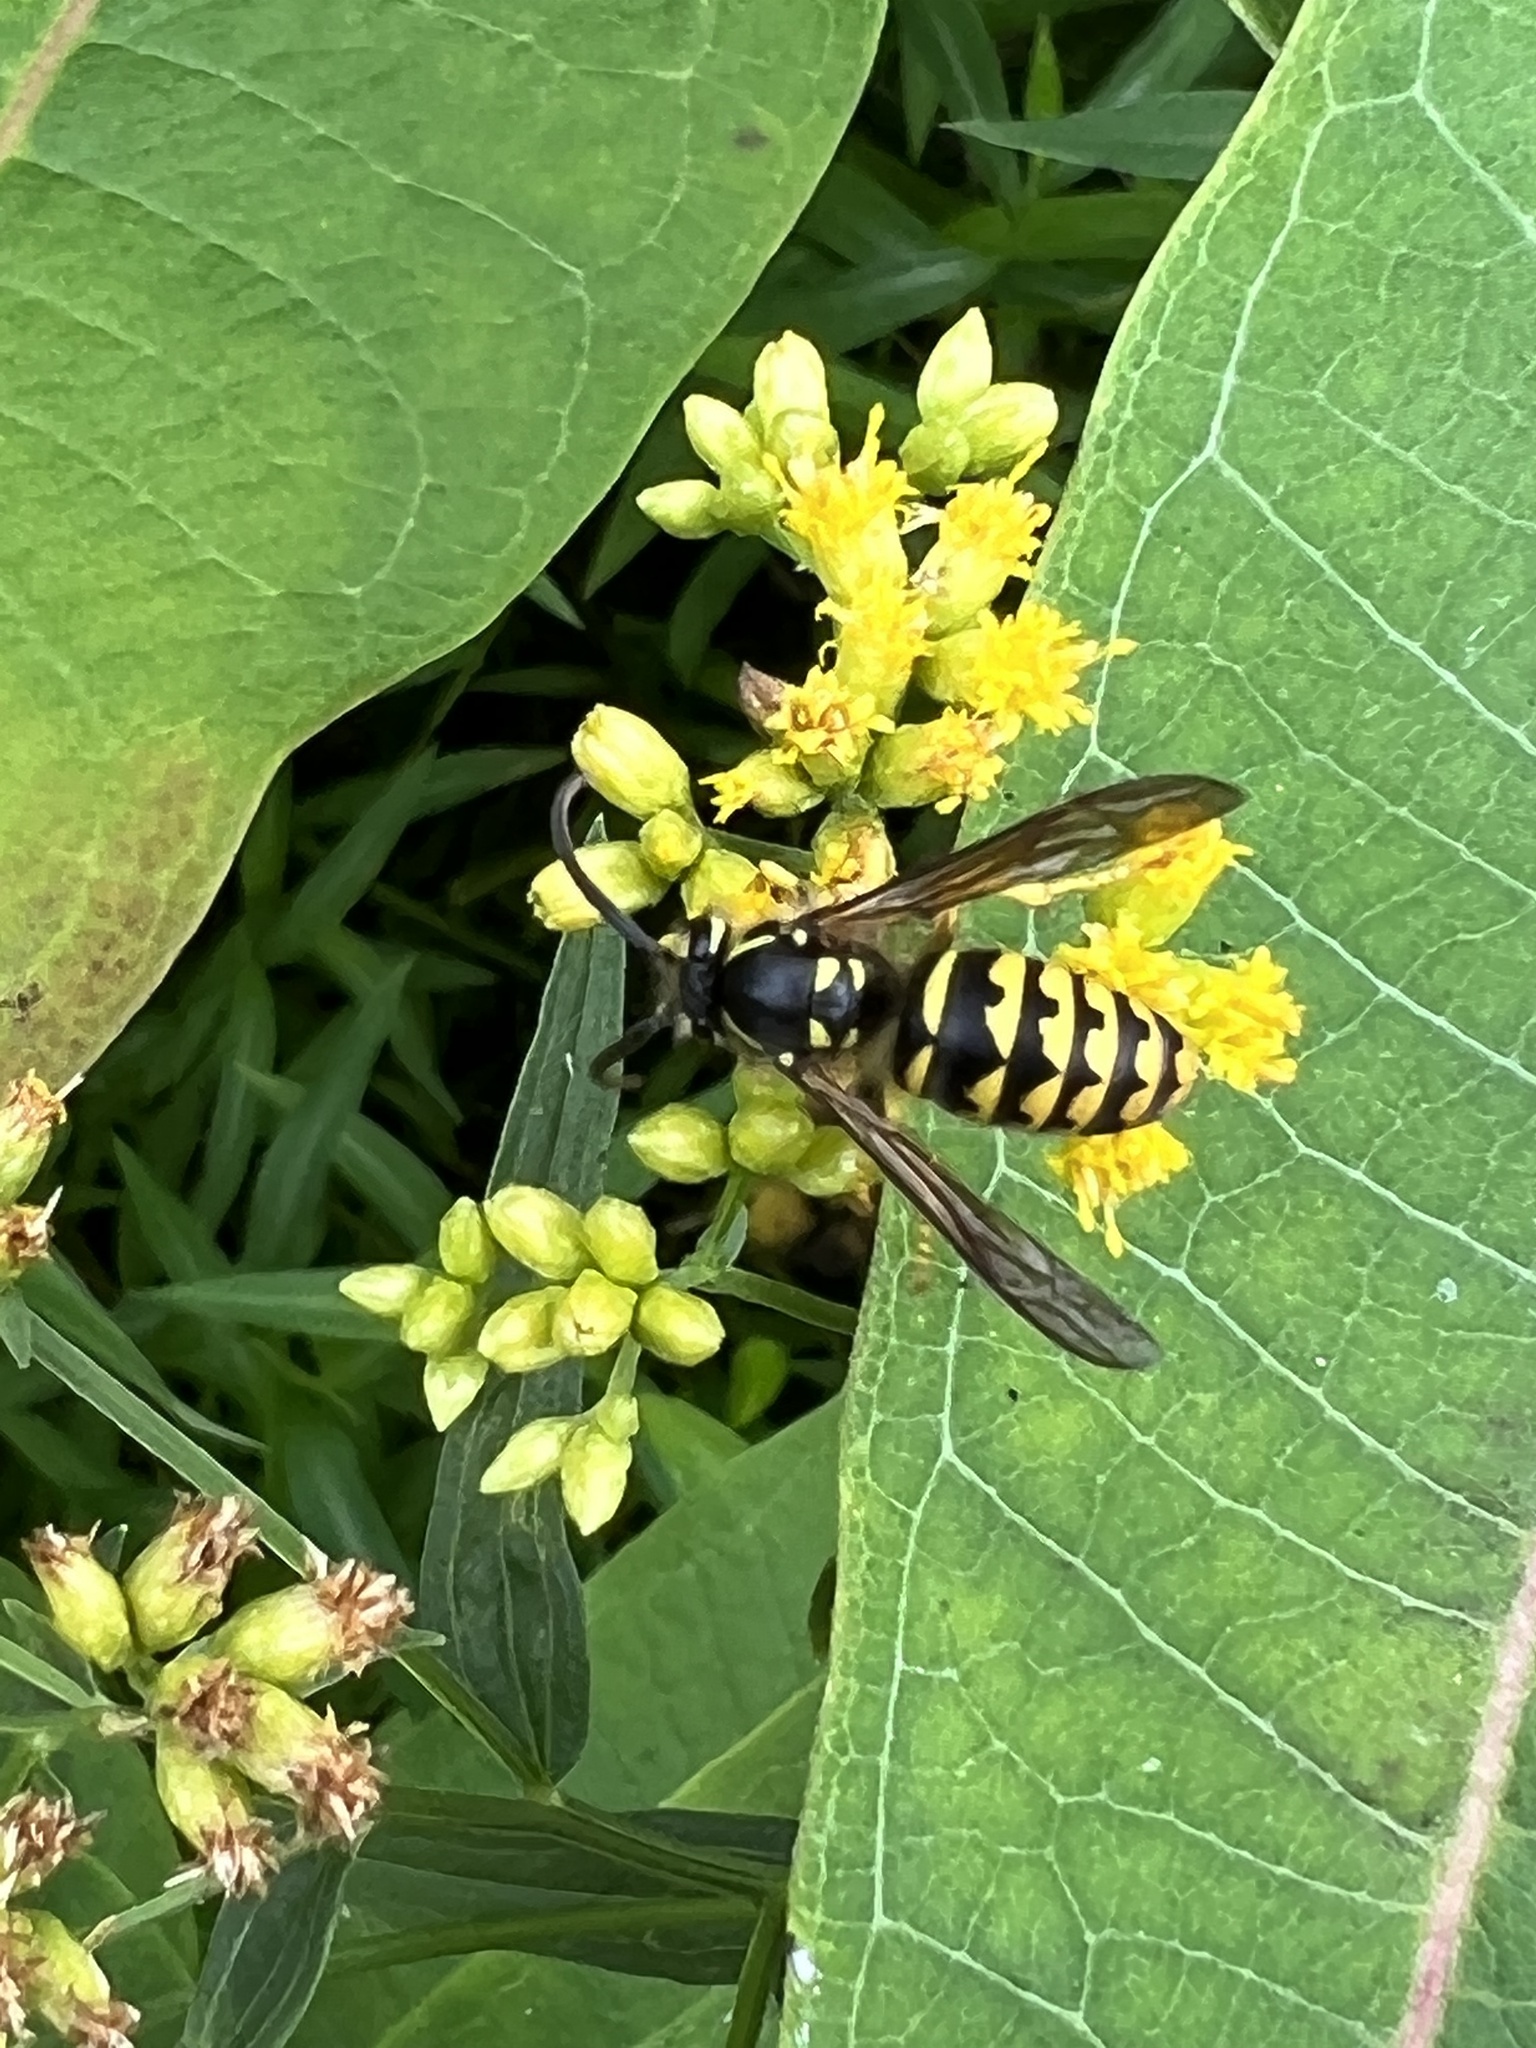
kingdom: Animalia
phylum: Arthropoda
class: Insecta
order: Hymenoptera
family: Vespidae
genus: Dolichovespula
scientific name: Dolichovespula arenaria
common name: Aerial yellowjacket
